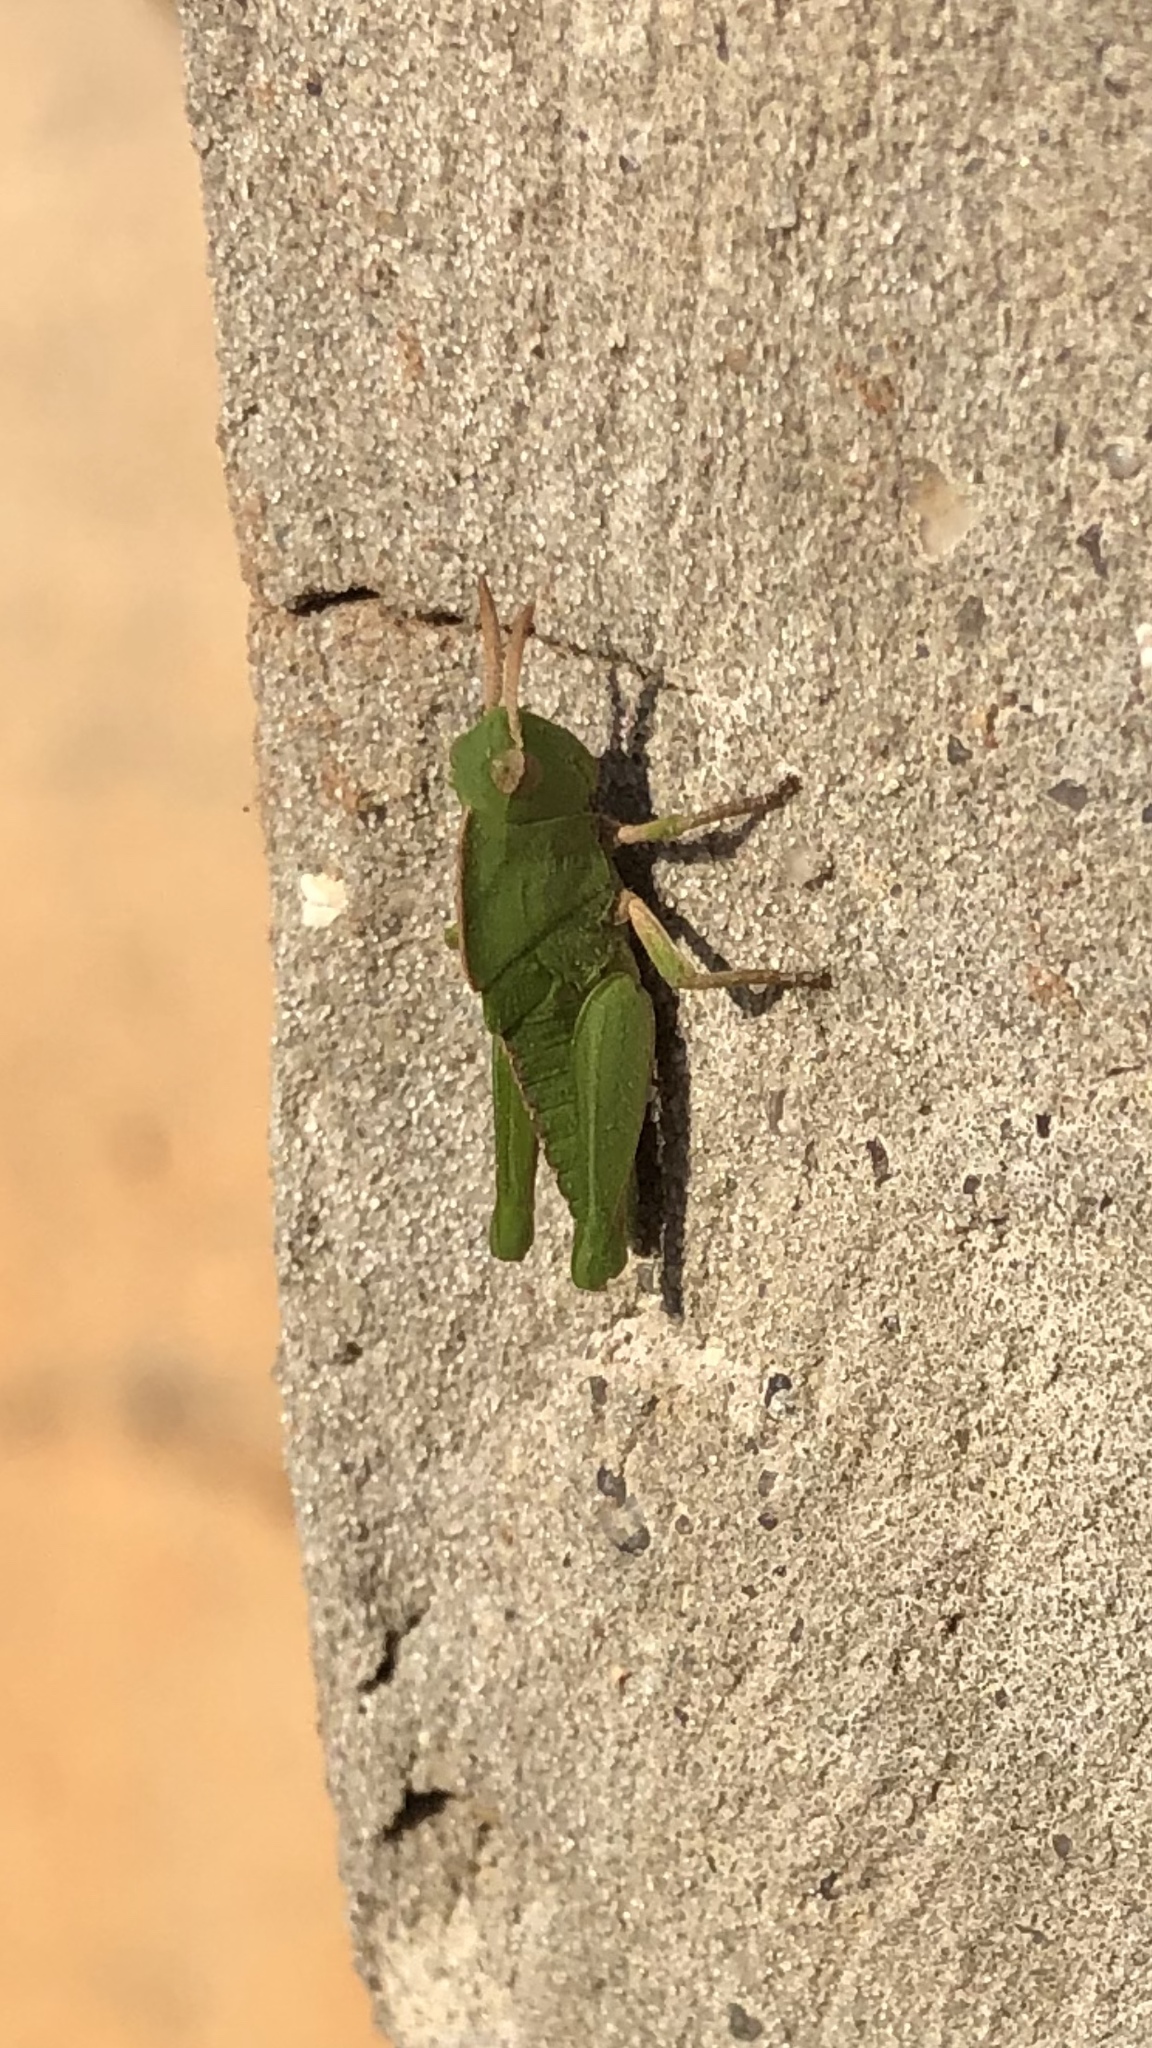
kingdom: Animalia
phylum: Arthropoda
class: Insecta
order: Orthoptera
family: Acrididae
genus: Chortophaga
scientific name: Chortophaga viridifasciata
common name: Green-striped grasshopper
